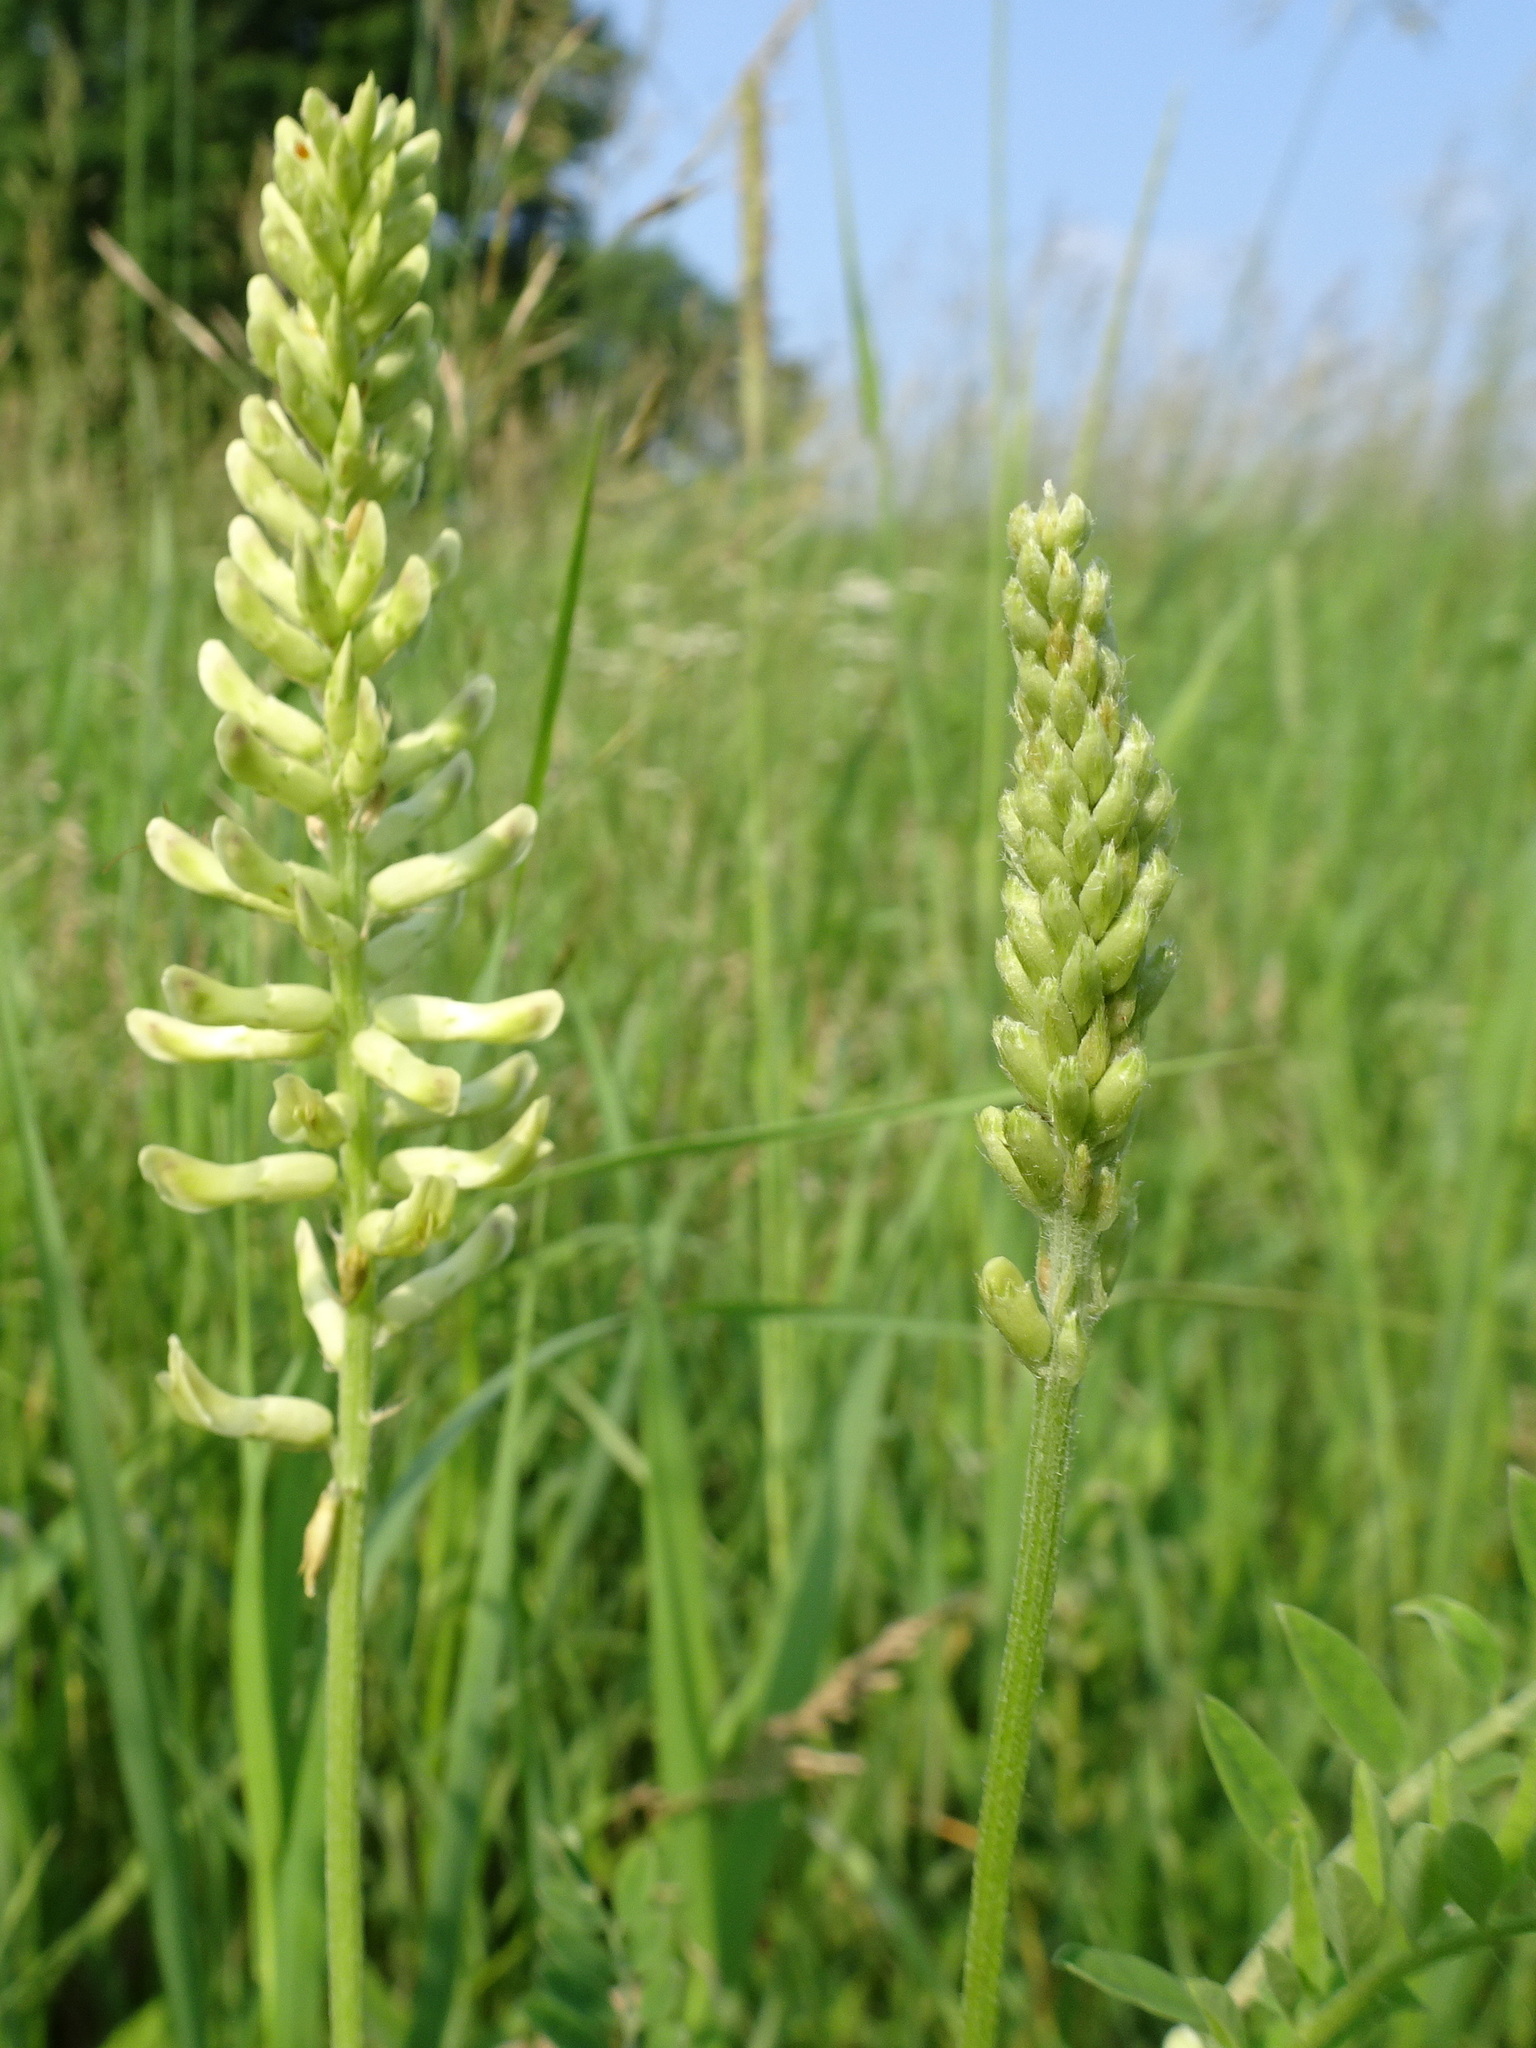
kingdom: Plantae
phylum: Tracheophyta
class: Magnoliopsida
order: Fabales
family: Fabaceae
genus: Astragalus
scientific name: Astragalus canadensis
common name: Canada milk-vetch
